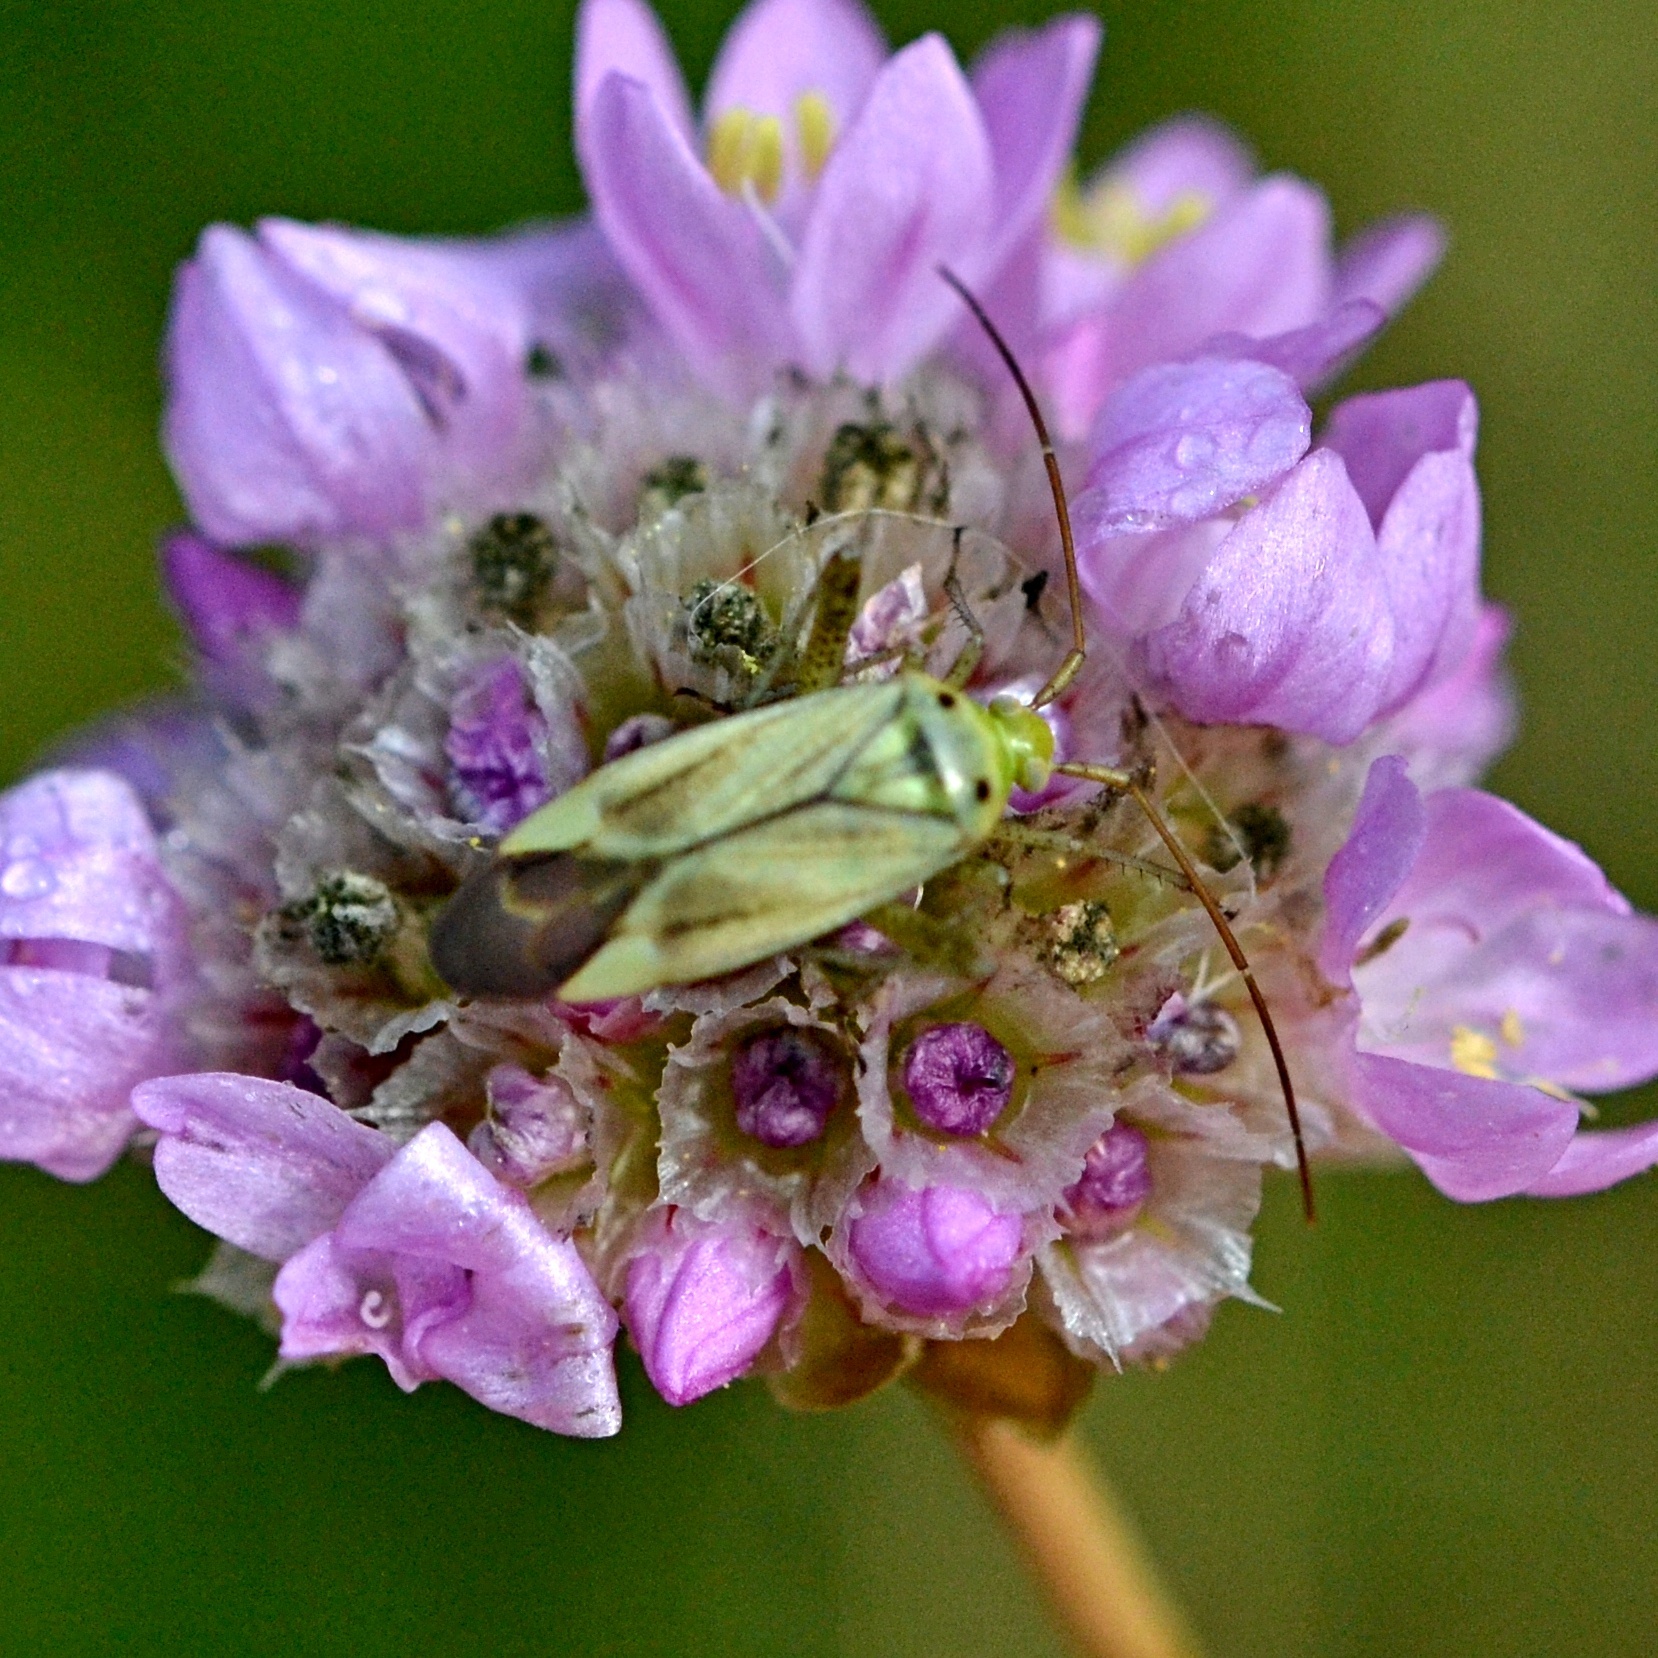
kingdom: Animalia
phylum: Arthropoda
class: Insecta
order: Hemiptera
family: Miridae
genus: Adelphocoris
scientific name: Adelphocoris lineolatus
